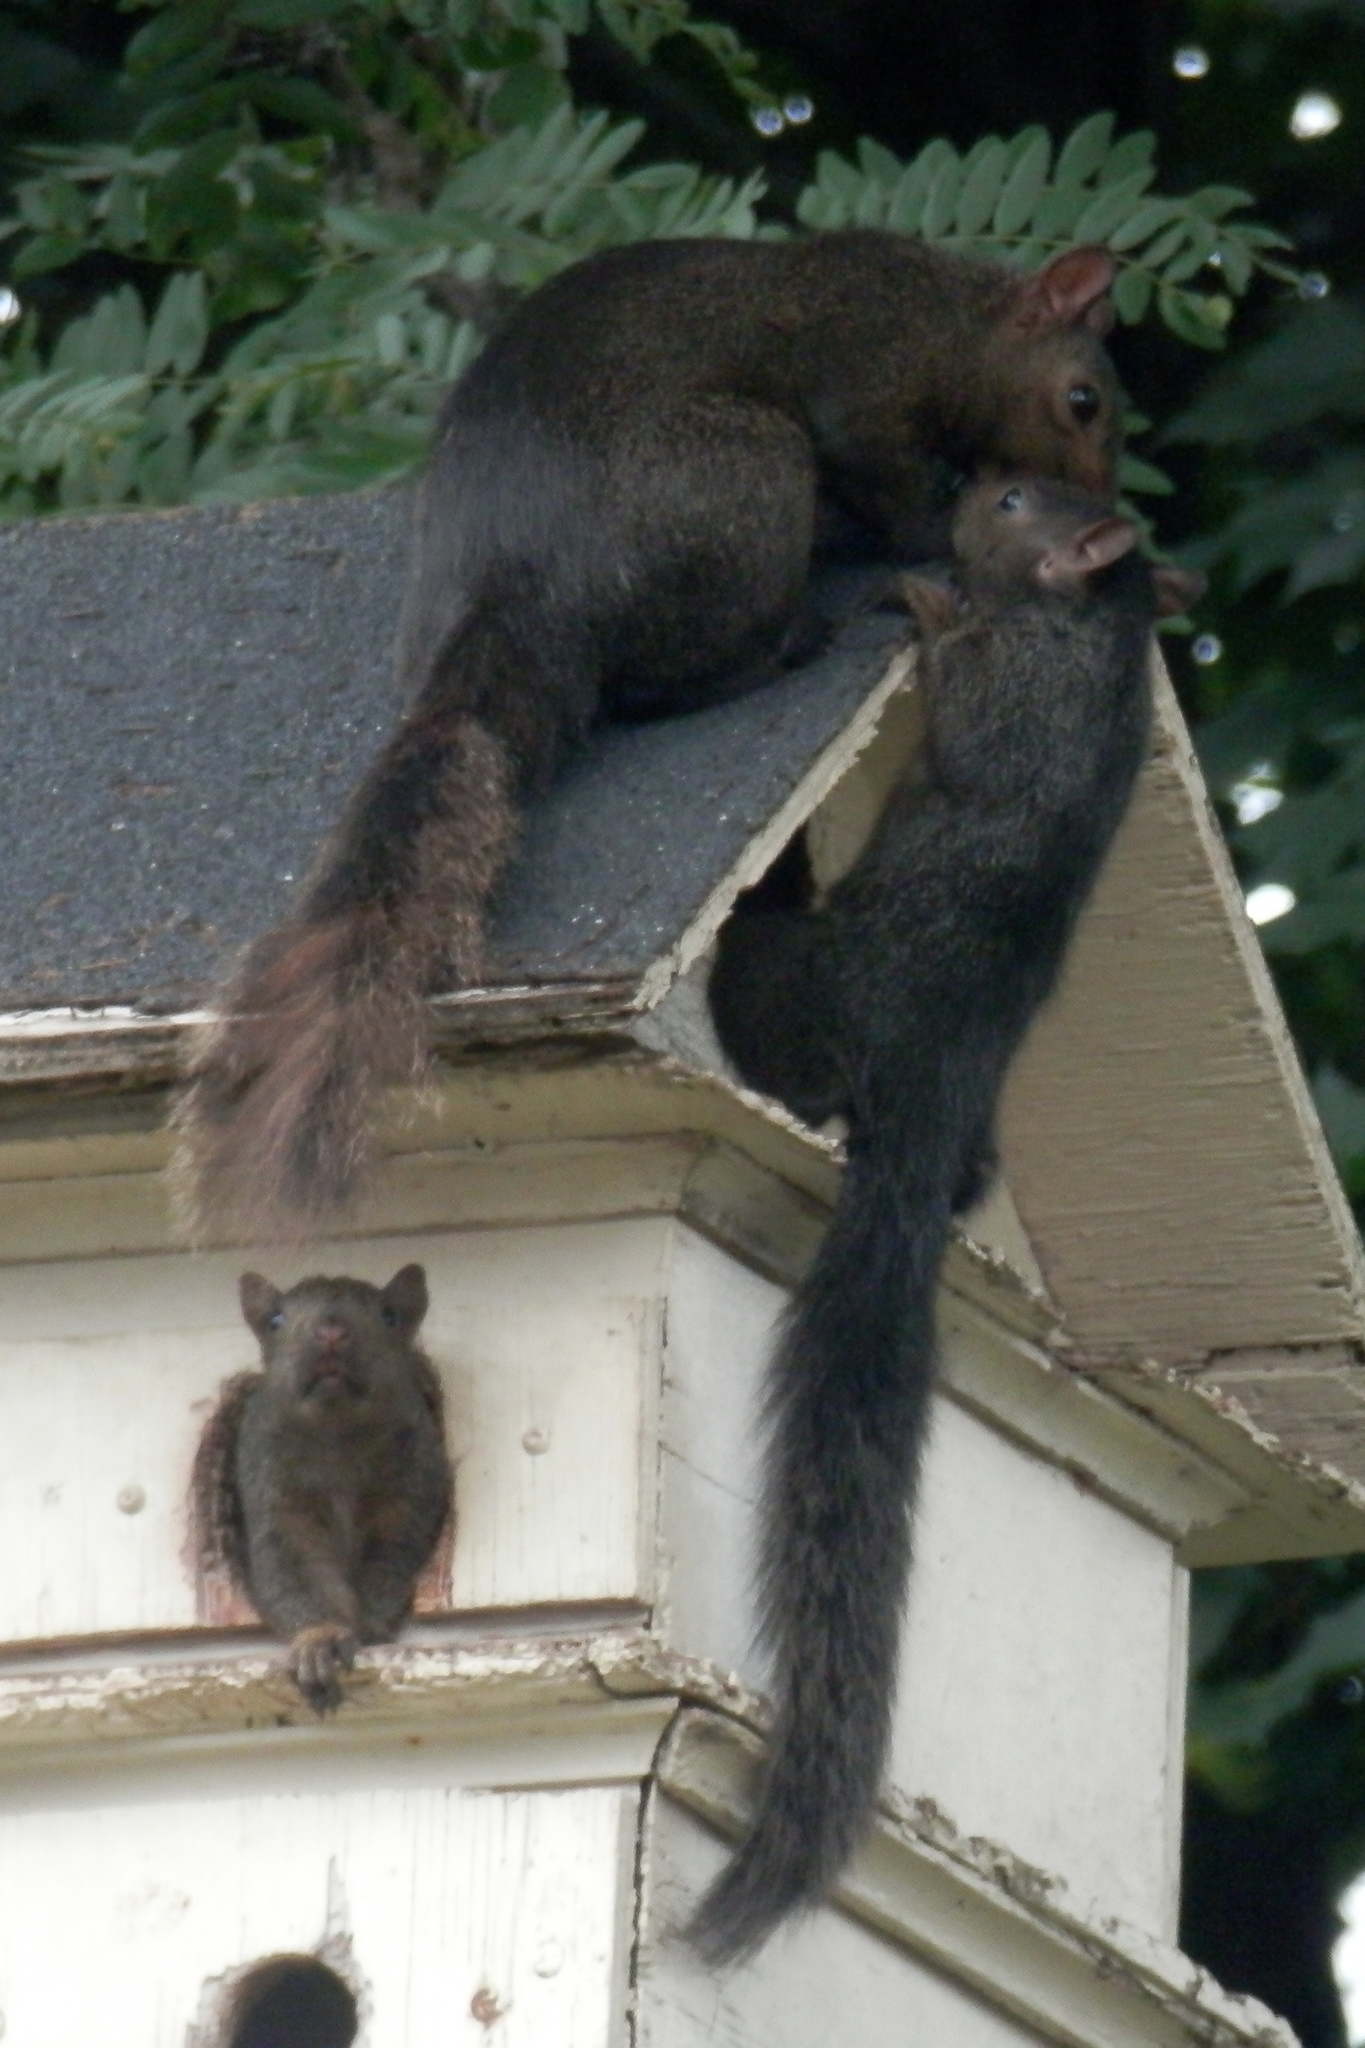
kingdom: Animalia
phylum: Chordata
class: Mammalia
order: Rodentia
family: Sciuridae
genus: Sciurus
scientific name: Sciurus carolinensis
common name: Eastern gray squirrel
